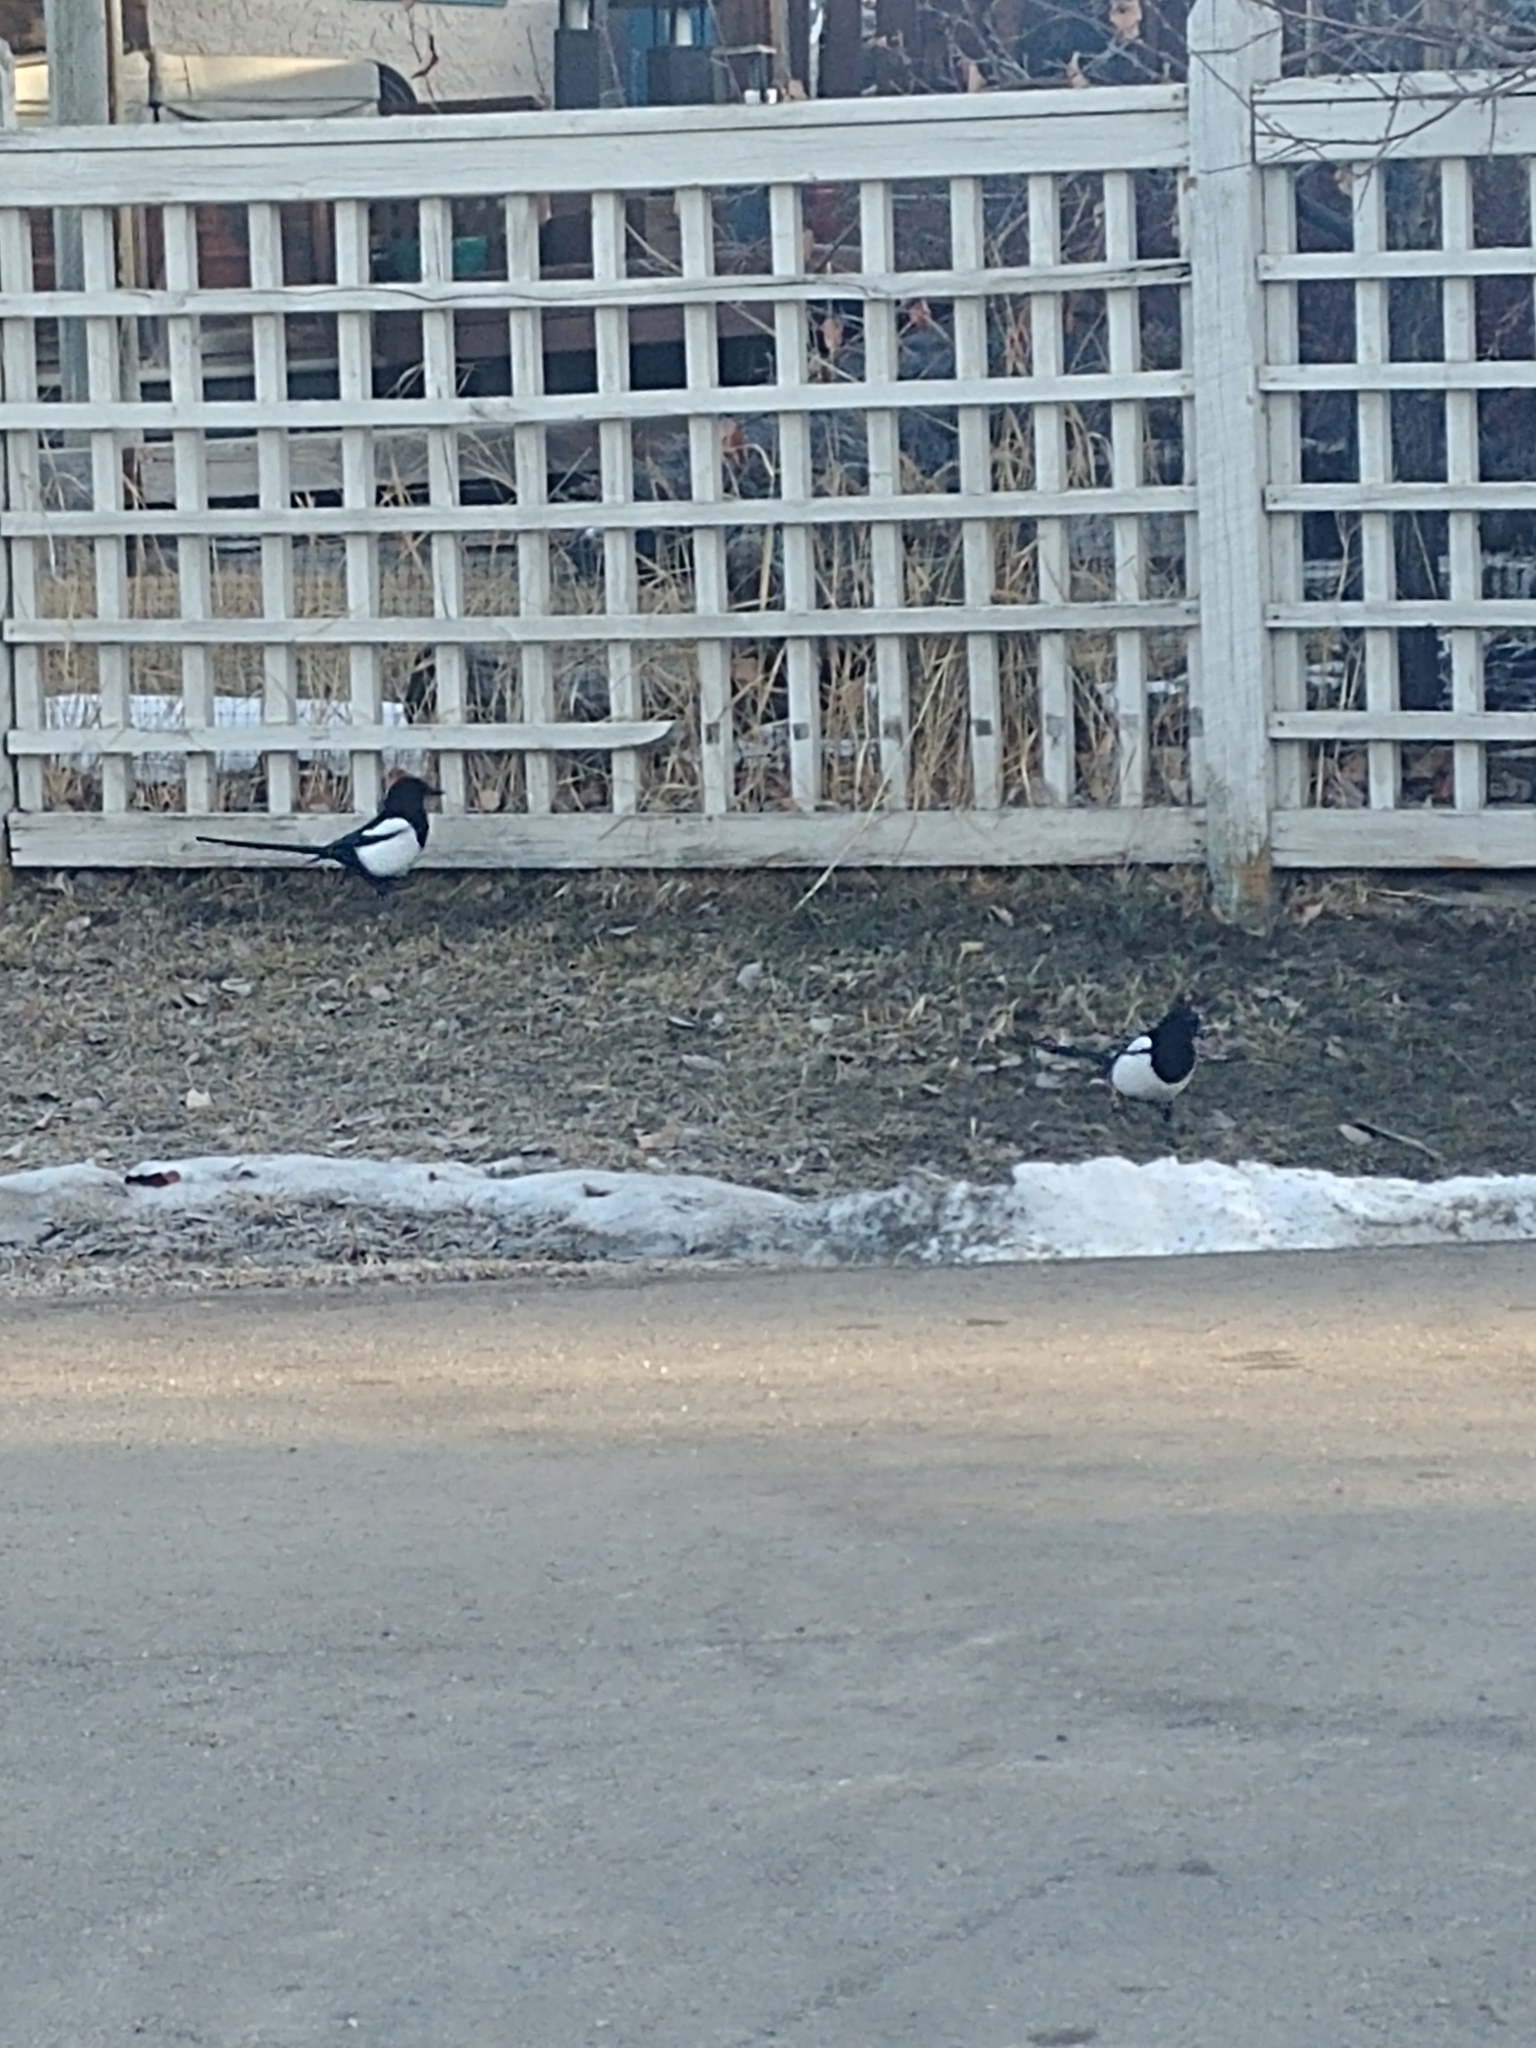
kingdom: Animalia
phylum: Chordata
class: Aves
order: Passeriformes
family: Corvidae
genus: Pica
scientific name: Pica hudsonia
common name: Black-billed magpie
